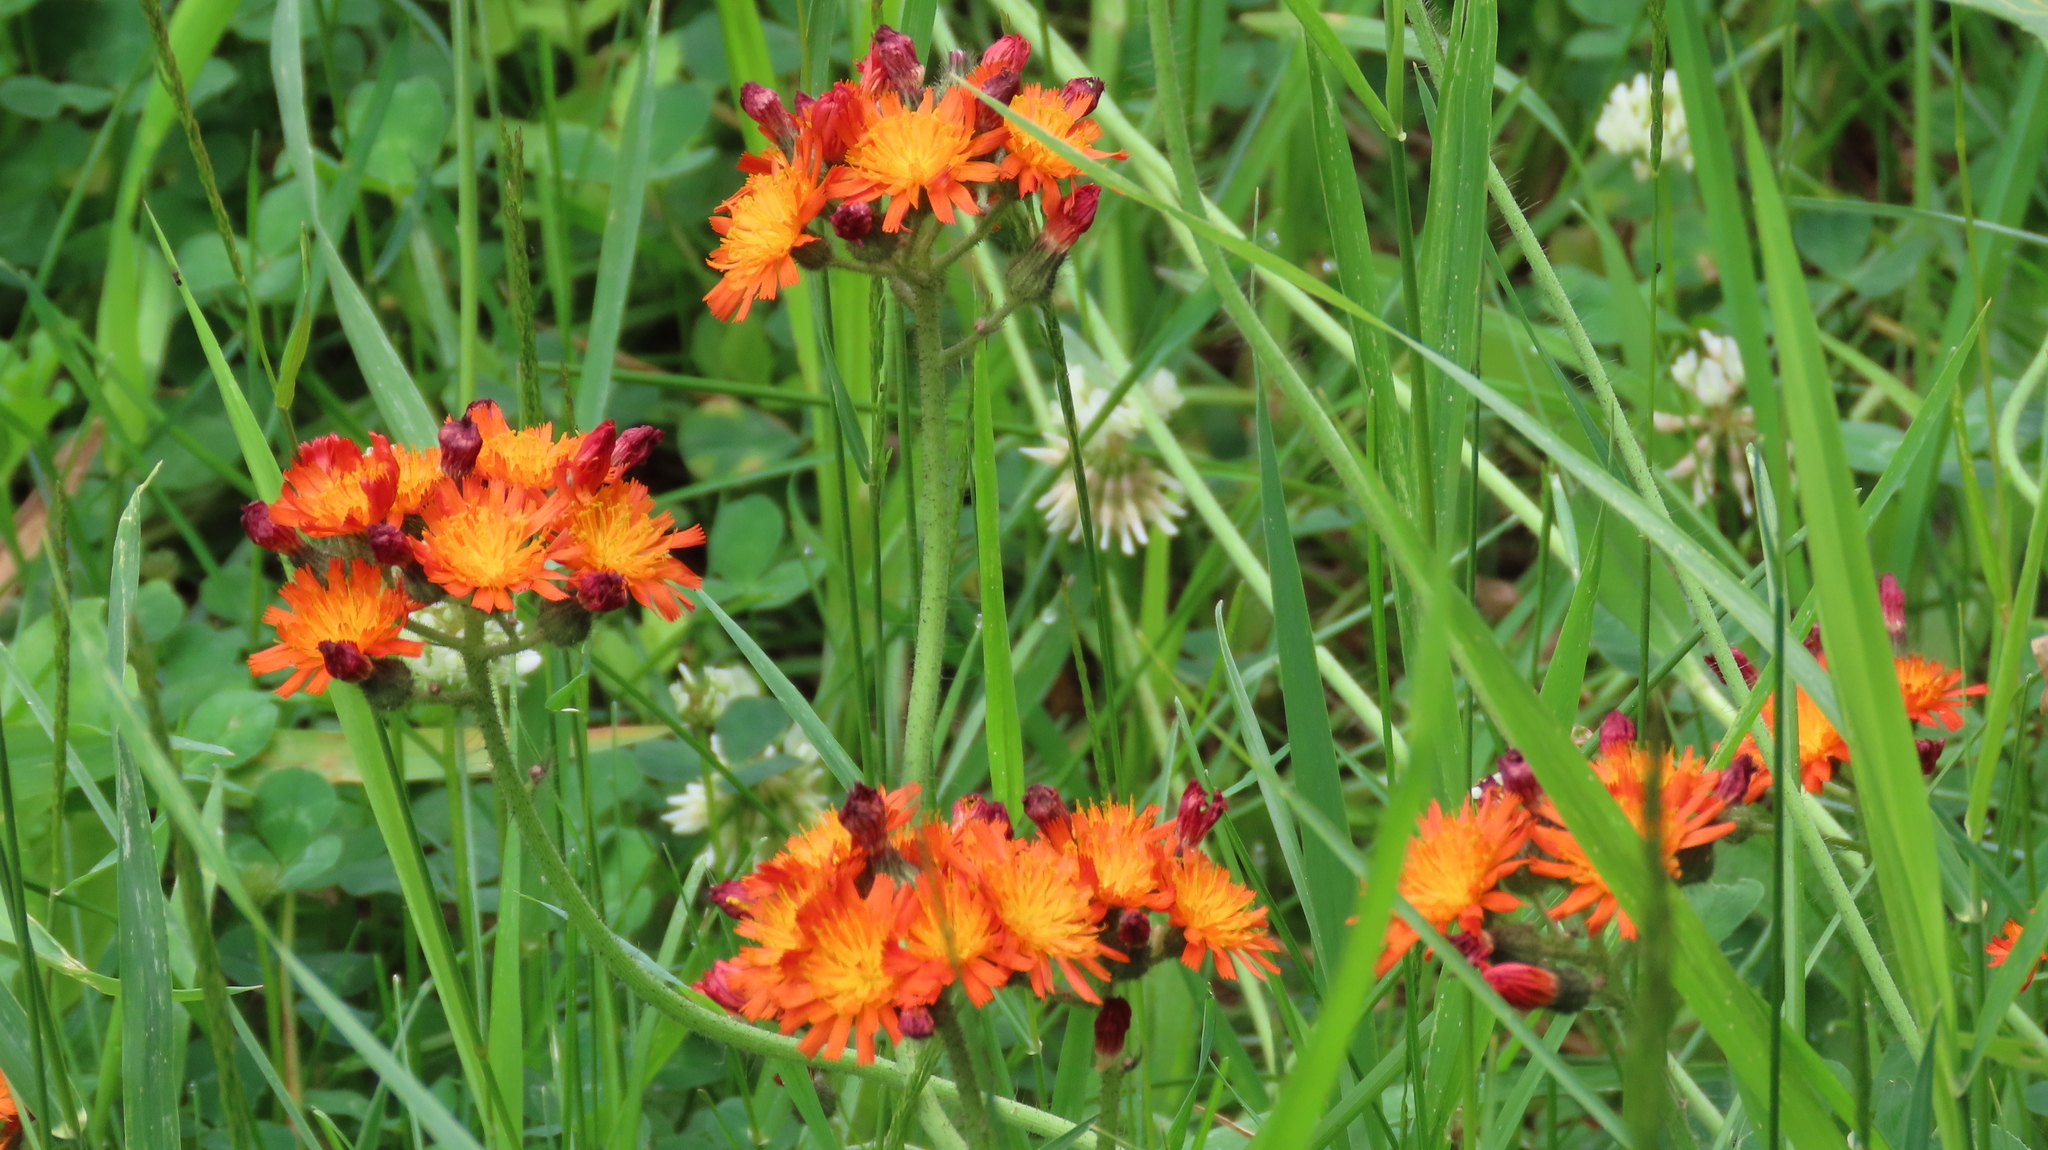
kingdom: Plantae
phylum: Tracheophyta
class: Magnoliopsida
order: Asterales
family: Asteraceae
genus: Pilosella
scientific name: Pilosella aurantiaca
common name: Fox-and-cubs
